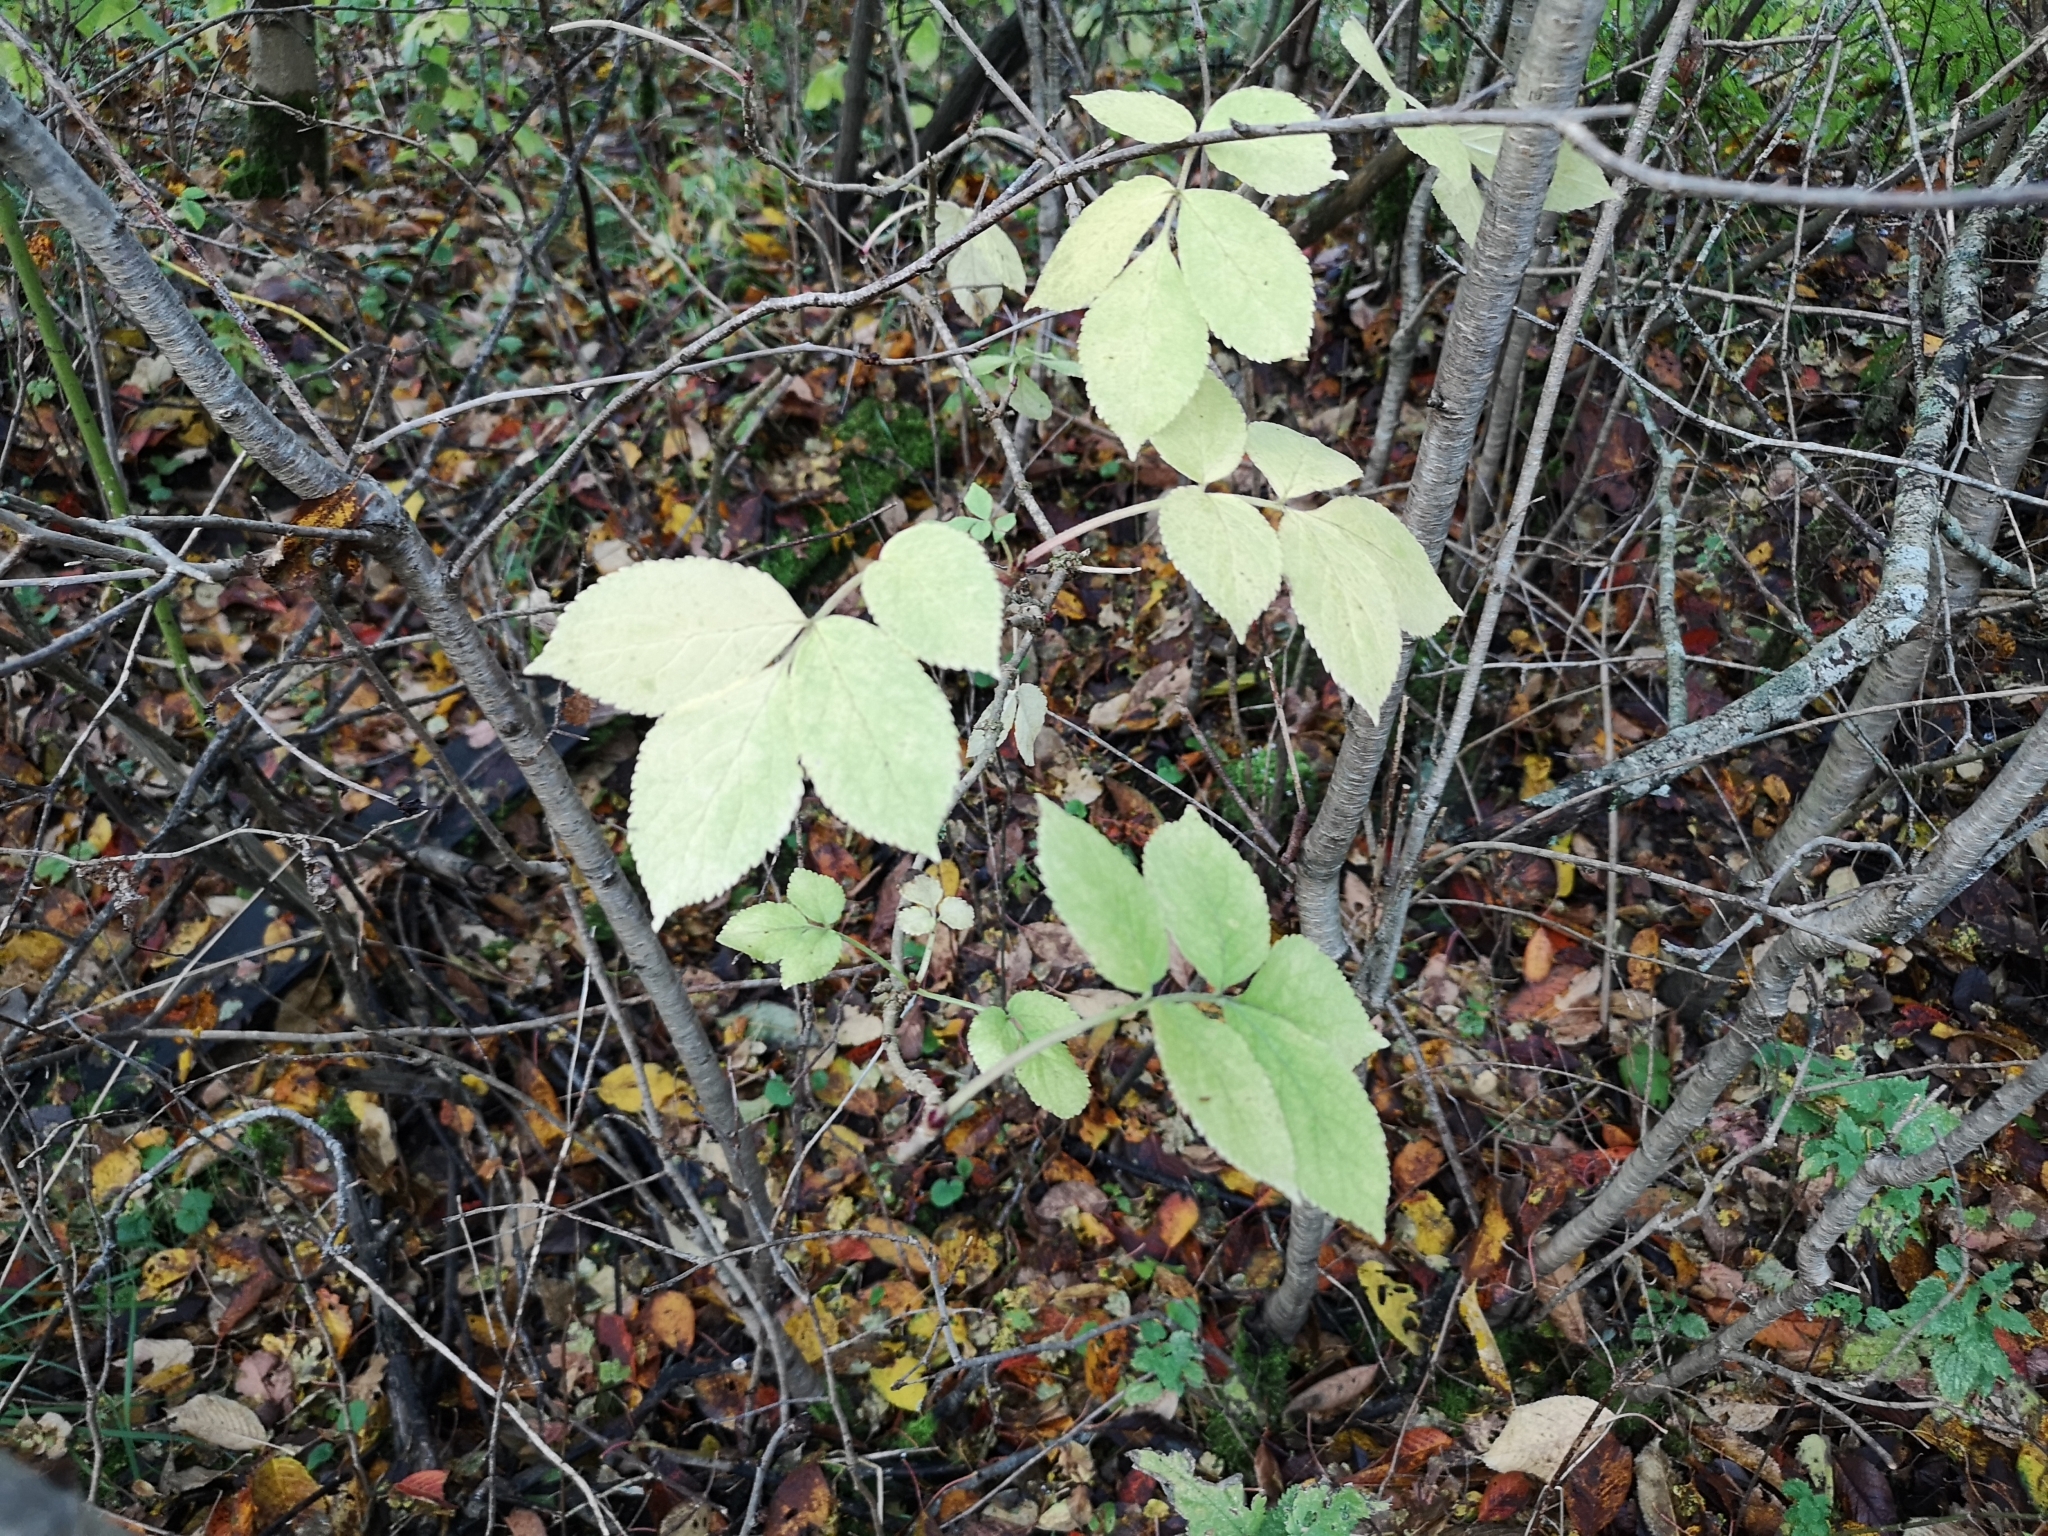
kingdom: Plantae
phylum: Tracheophyta
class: Magnoliopsida
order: Dipsacales
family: Viburnaceae
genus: Sambucus
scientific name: Sambucus nigra
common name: Elder
